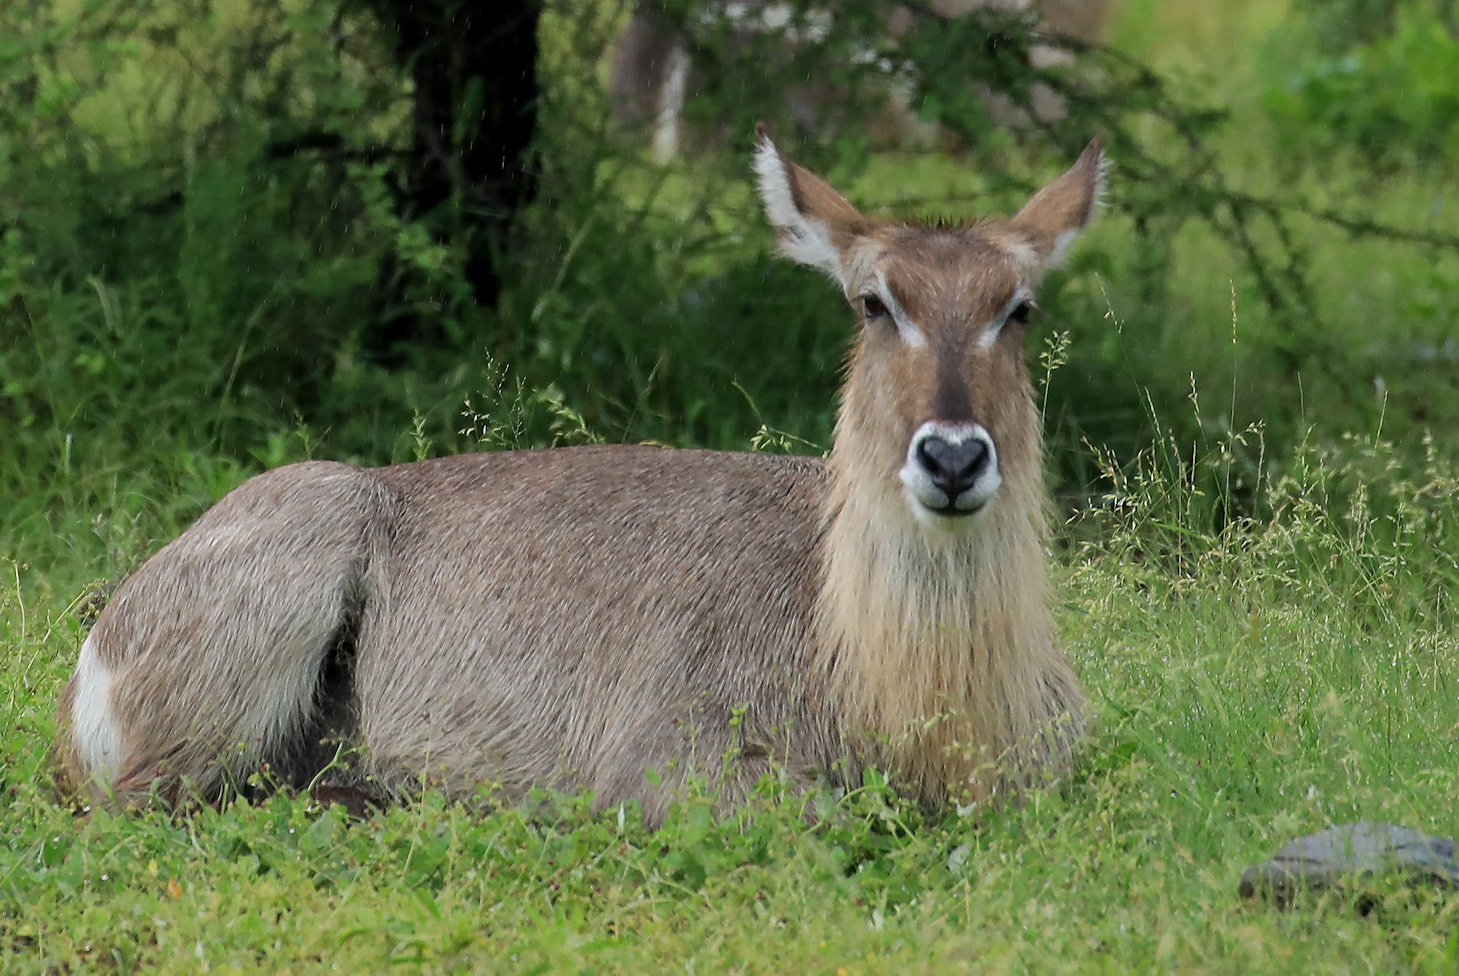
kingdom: Animalia
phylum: Chordata
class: Mammalia
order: Artiodactyla
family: Bovidae
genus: Kobus
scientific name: Kobus ellipsiprymnus
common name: Waterbuck
